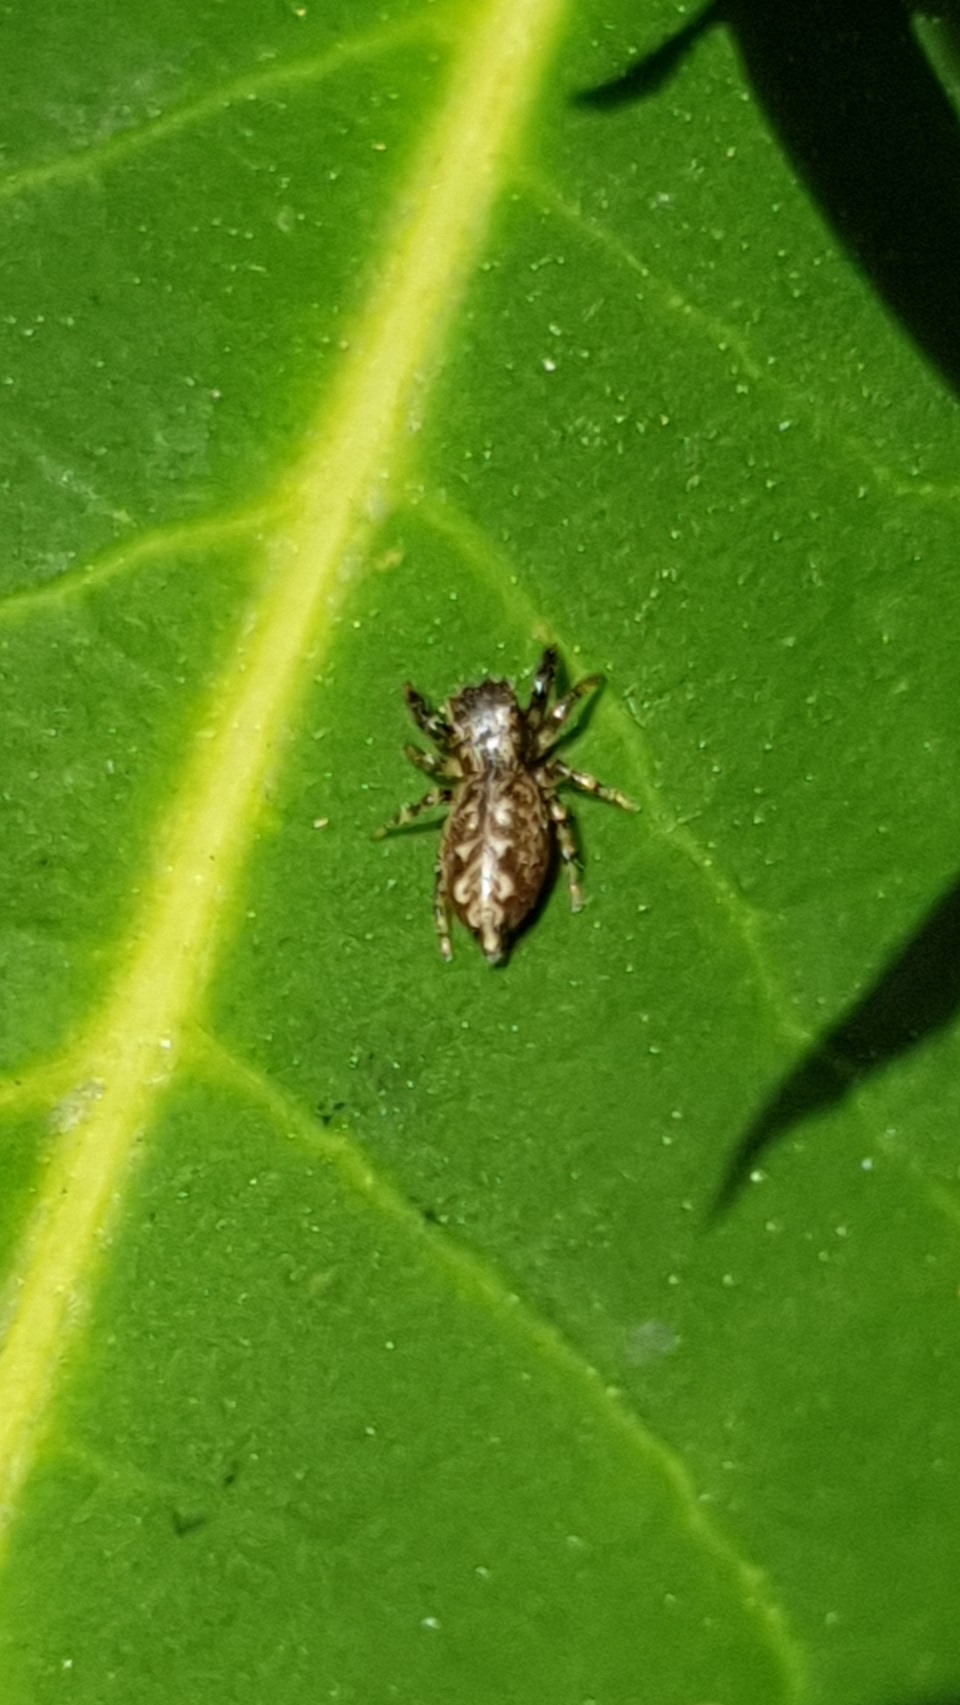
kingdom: Animalia
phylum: Arthropoda
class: Arachnida
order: Araneae
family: Salticidae
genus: Marpissa
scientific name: Marpissa muscosa
